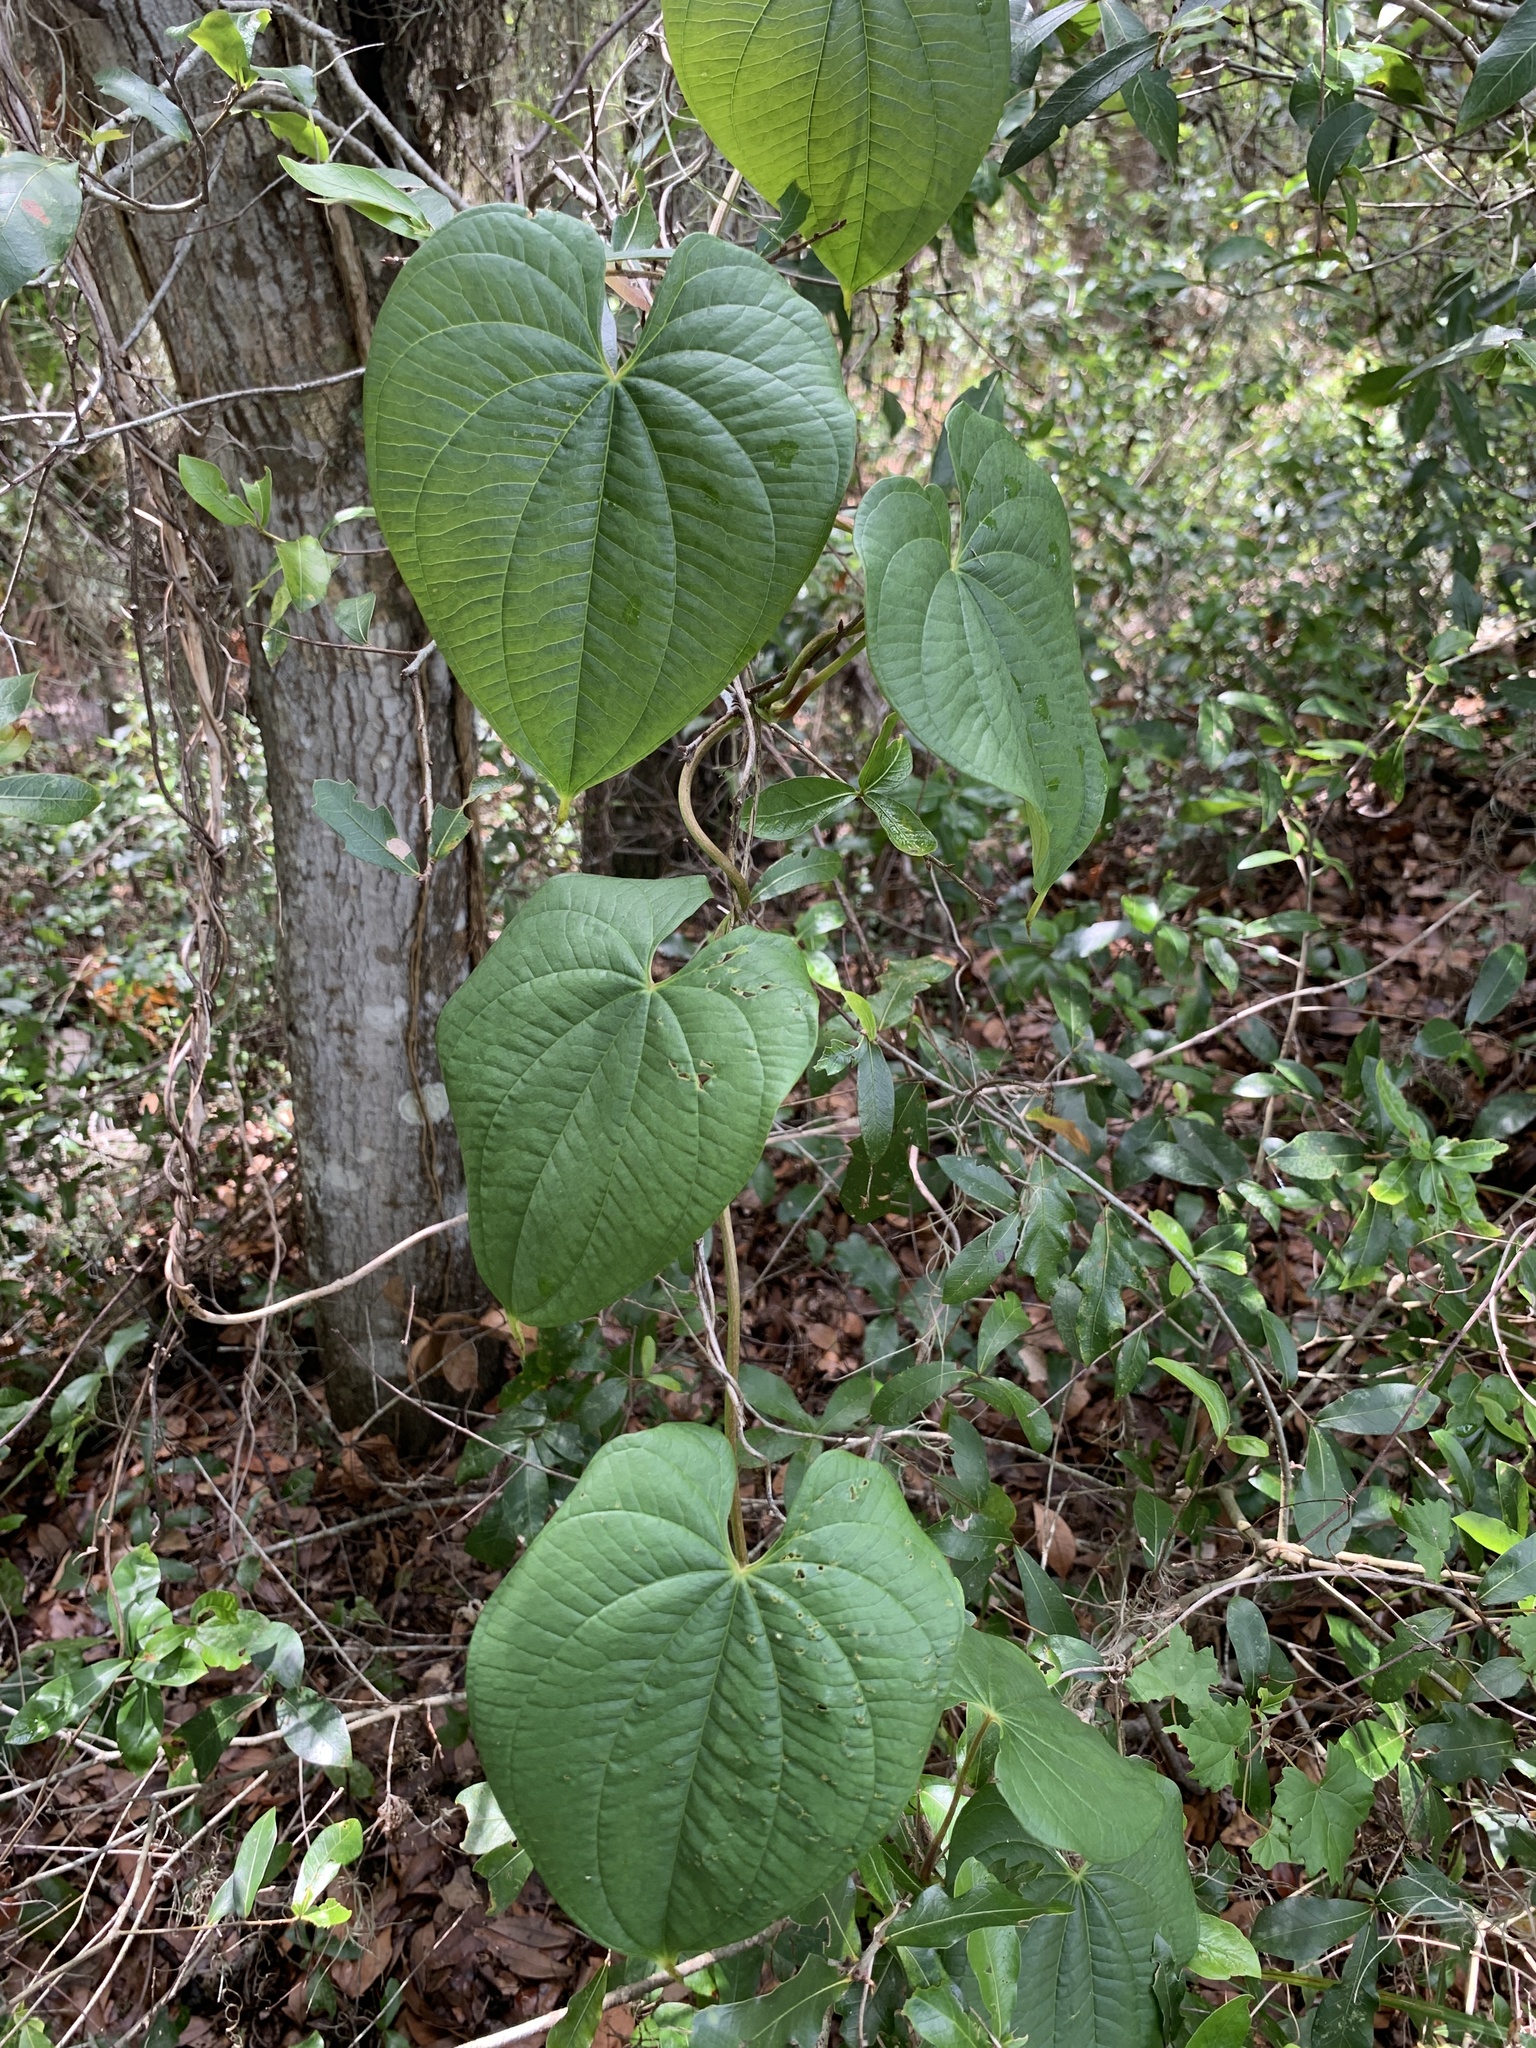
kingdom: Plantae
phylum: Tracheophyta
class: Liliopsida
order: Dioscoreales
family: Dioscoreaceae
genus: Dioscorea
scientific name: Dioscorea bulbifera
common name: Air yam
